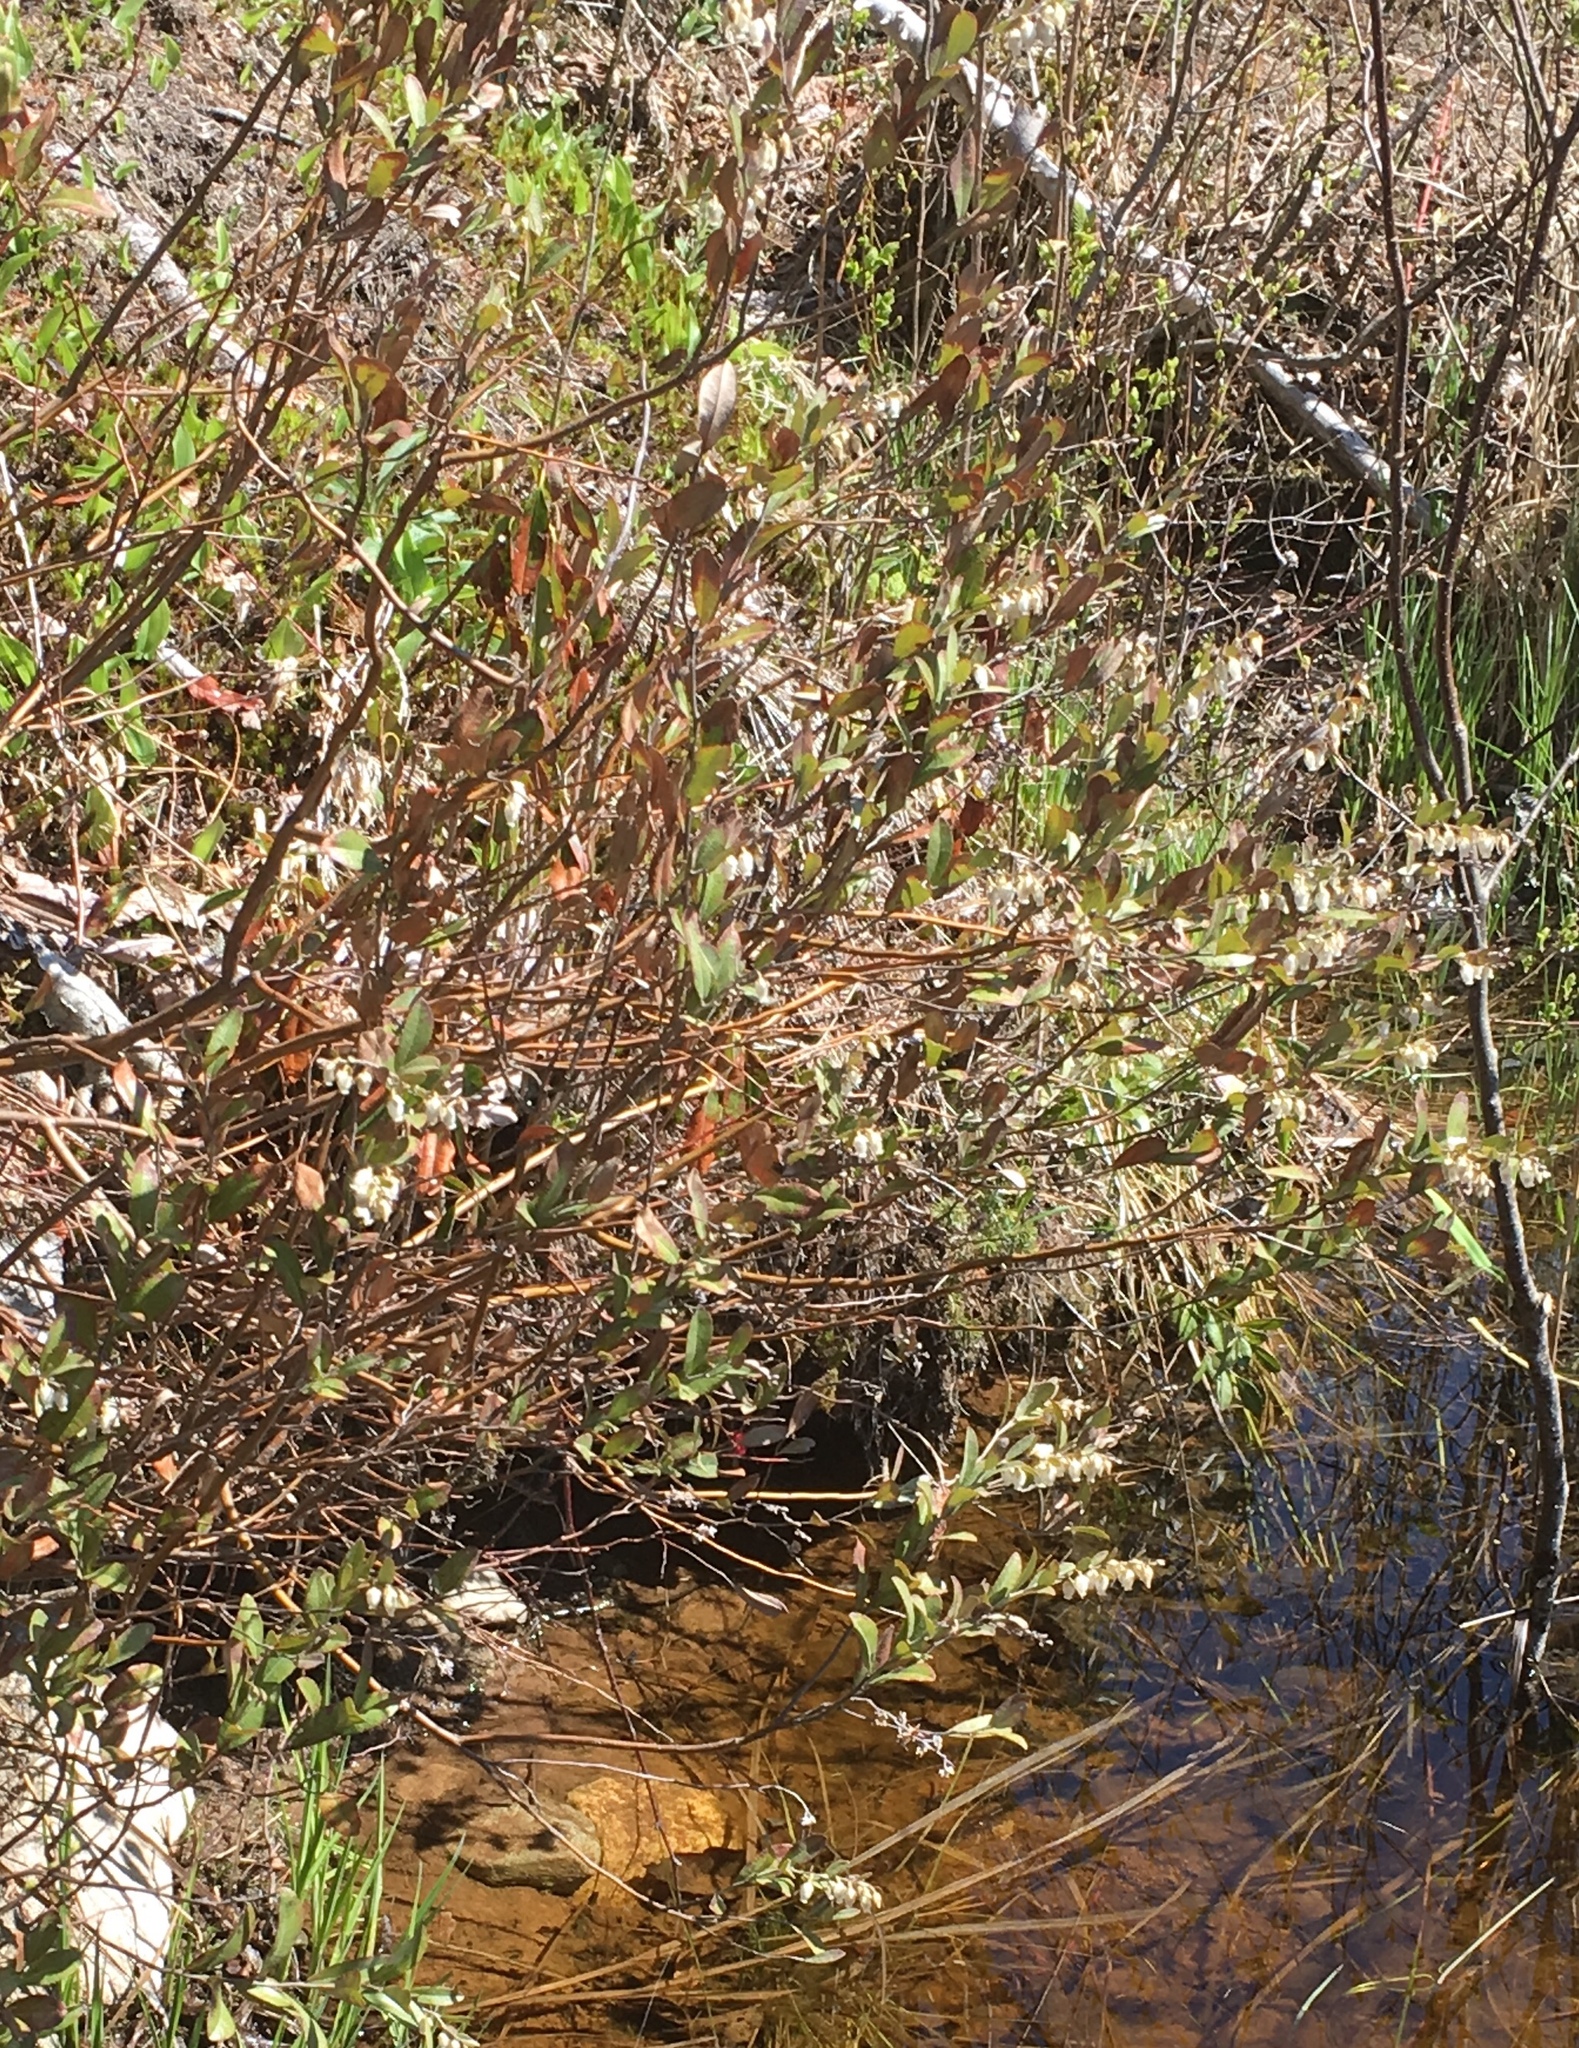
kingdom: Plantae
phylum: Tracheophyta
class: Magnoliopsida
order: Ericales
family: Ericaceae
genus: Chamaedaphne
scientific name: Chamaedaphne calyculata
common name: Leatherleaf
